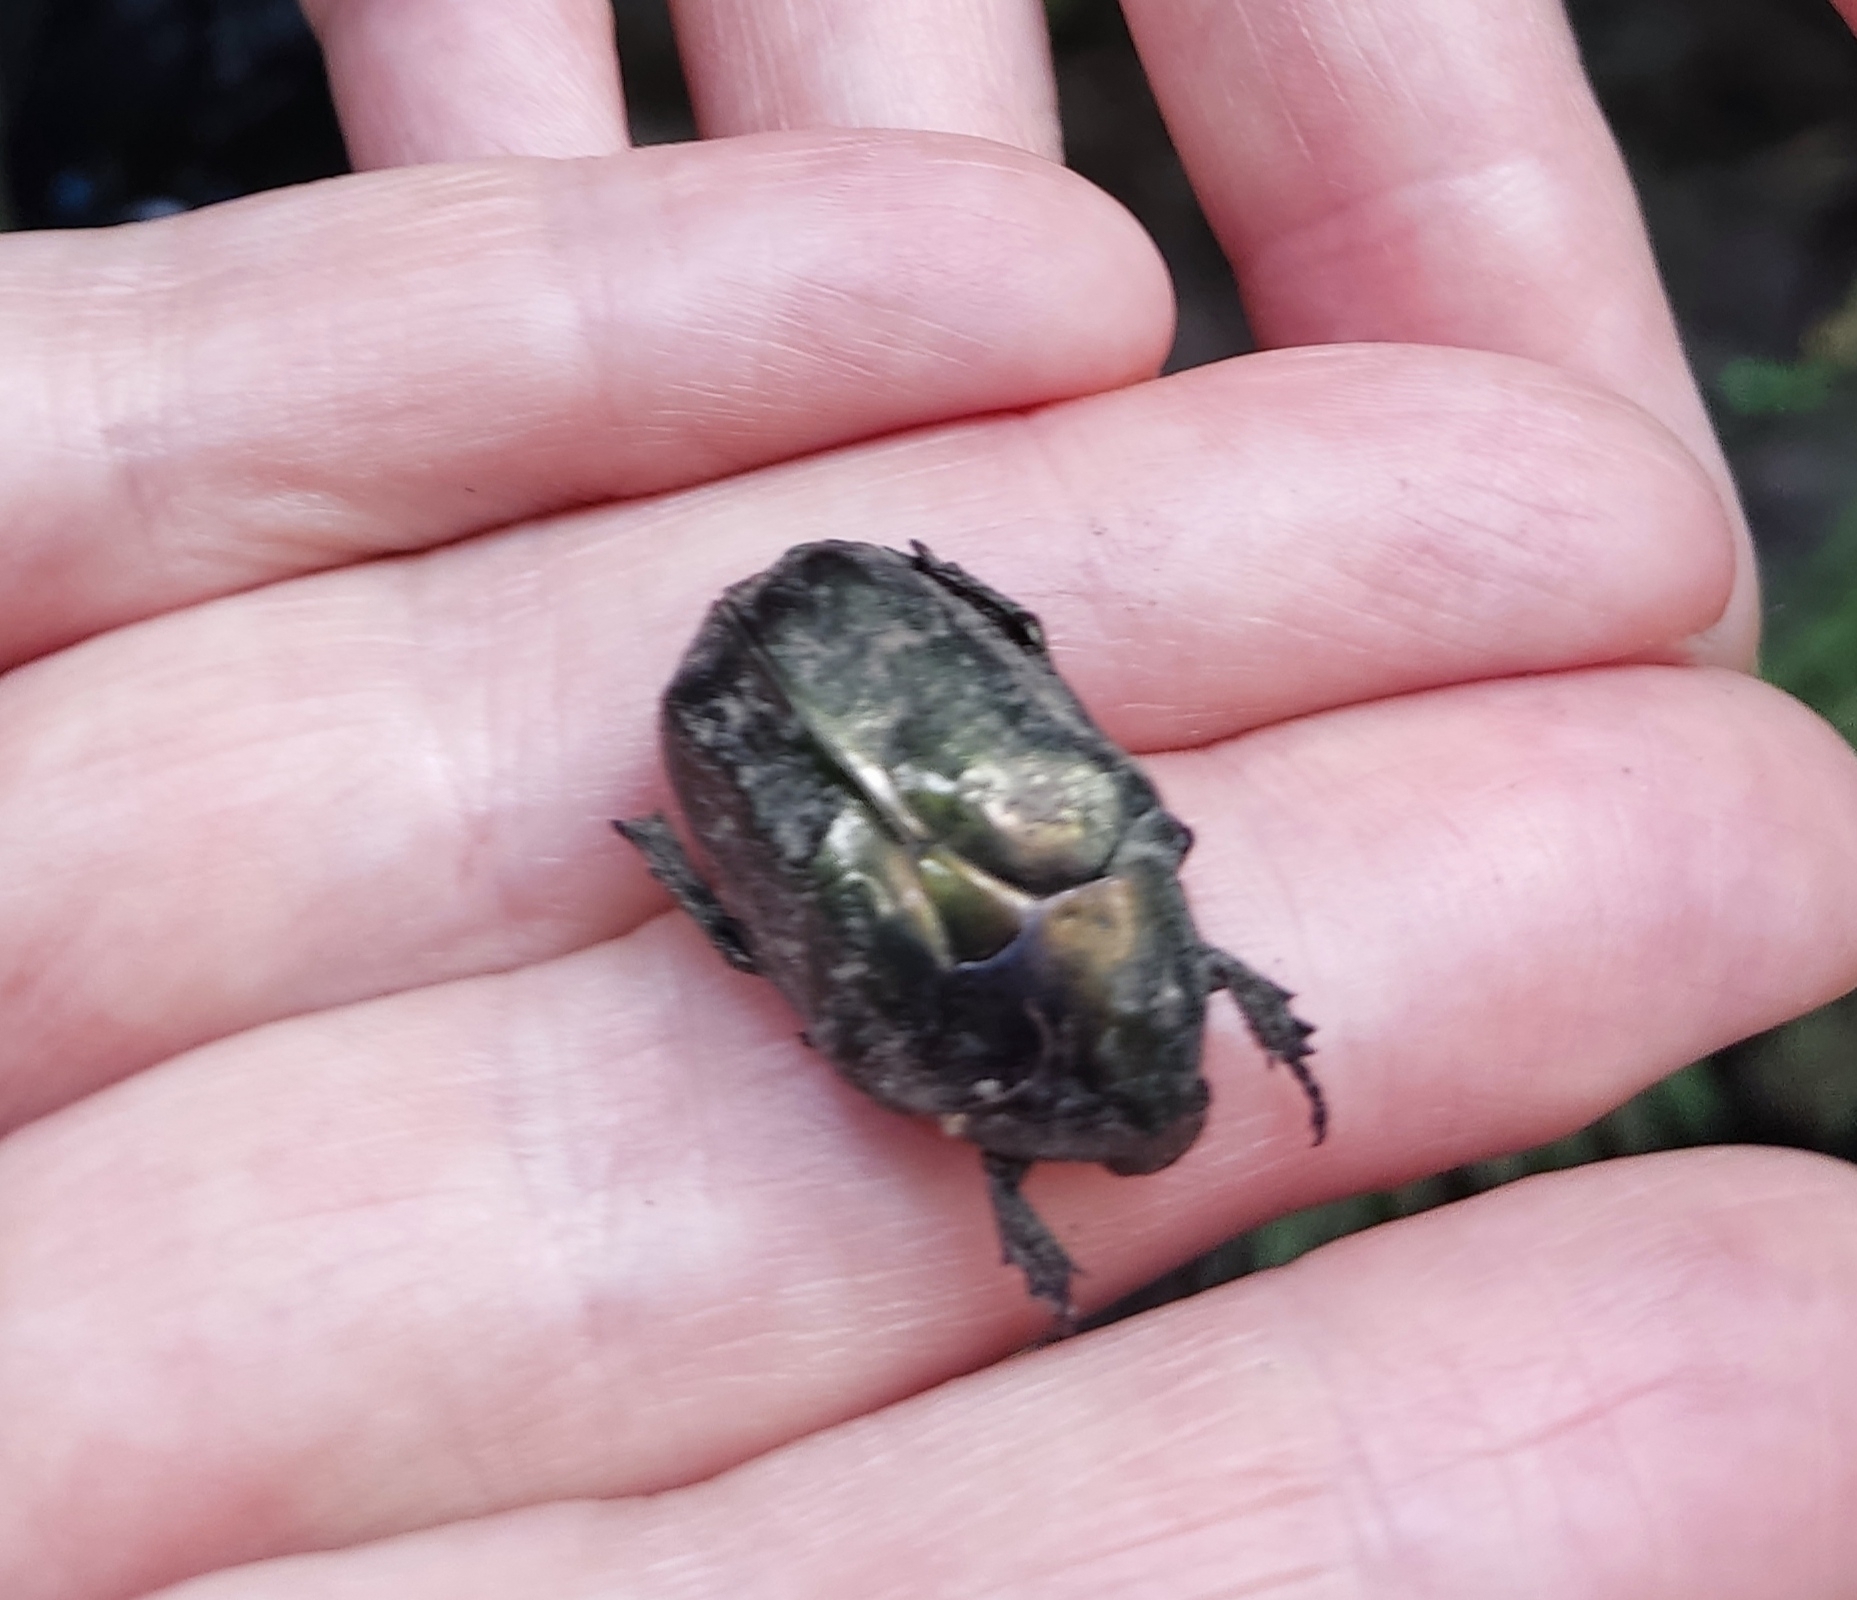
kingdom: Animalia
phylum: Arthropoda
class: Insecta
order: Coleoptera
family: Scarabaeidae
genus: Protaetia
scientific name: Protaetia marmorata
